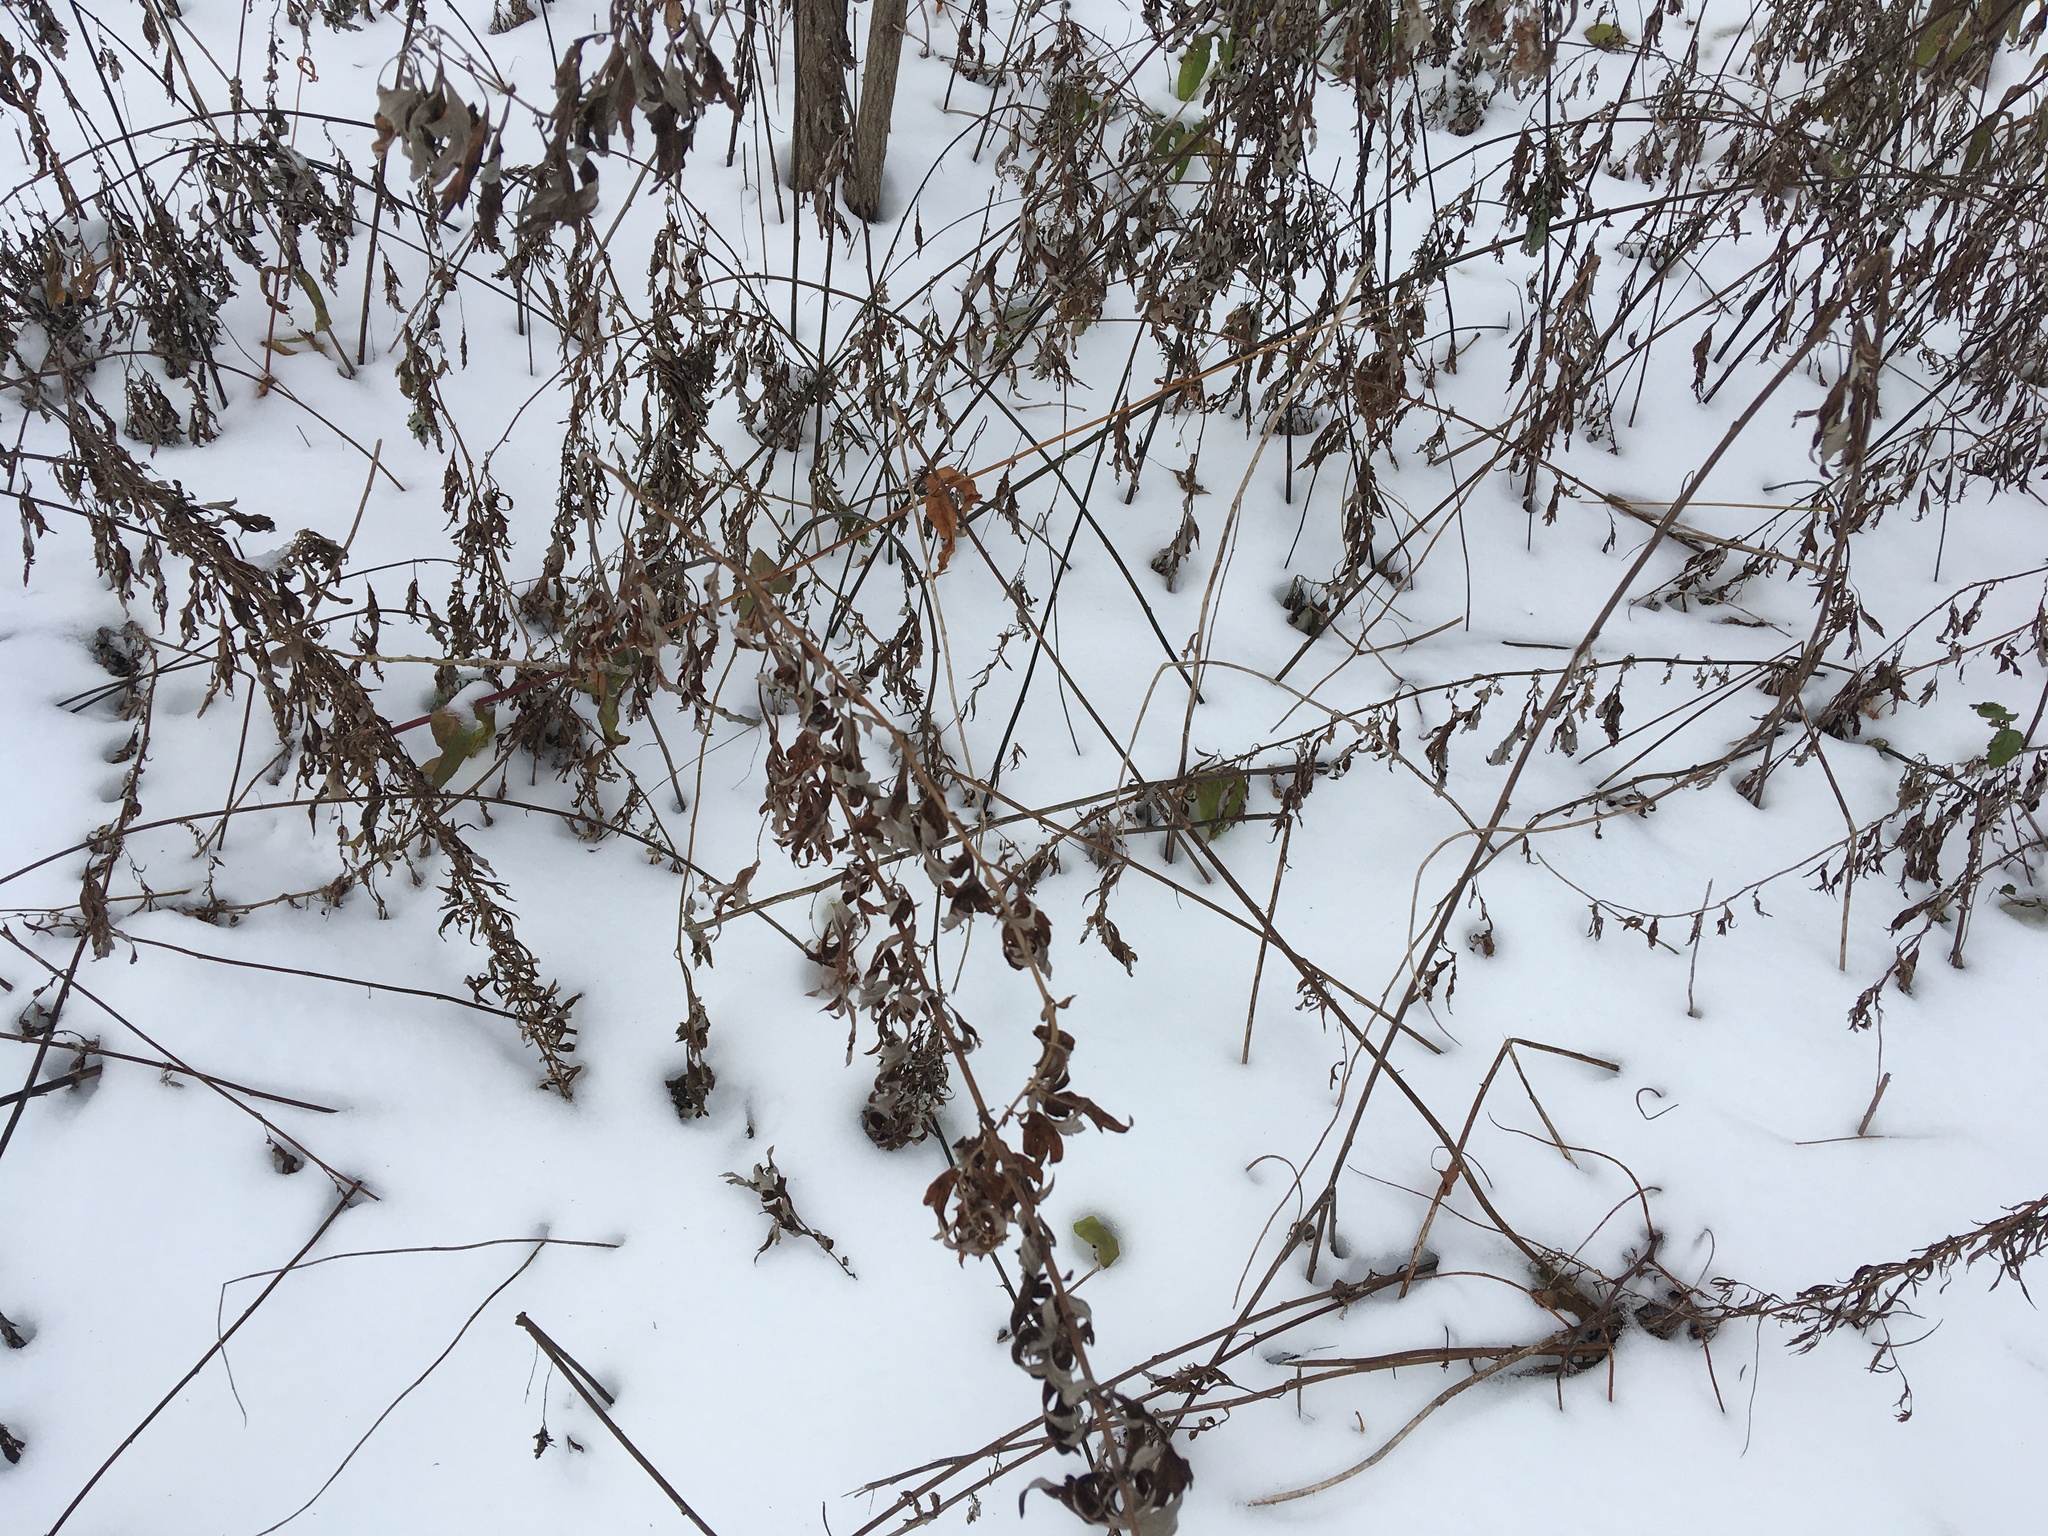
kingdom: Plantae
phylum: Tracheophyta
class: Magnoliopsida
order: Asterales
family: Asteraceae
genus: Artemisia
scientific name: Artemisia vulgaris
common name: Mugwort
